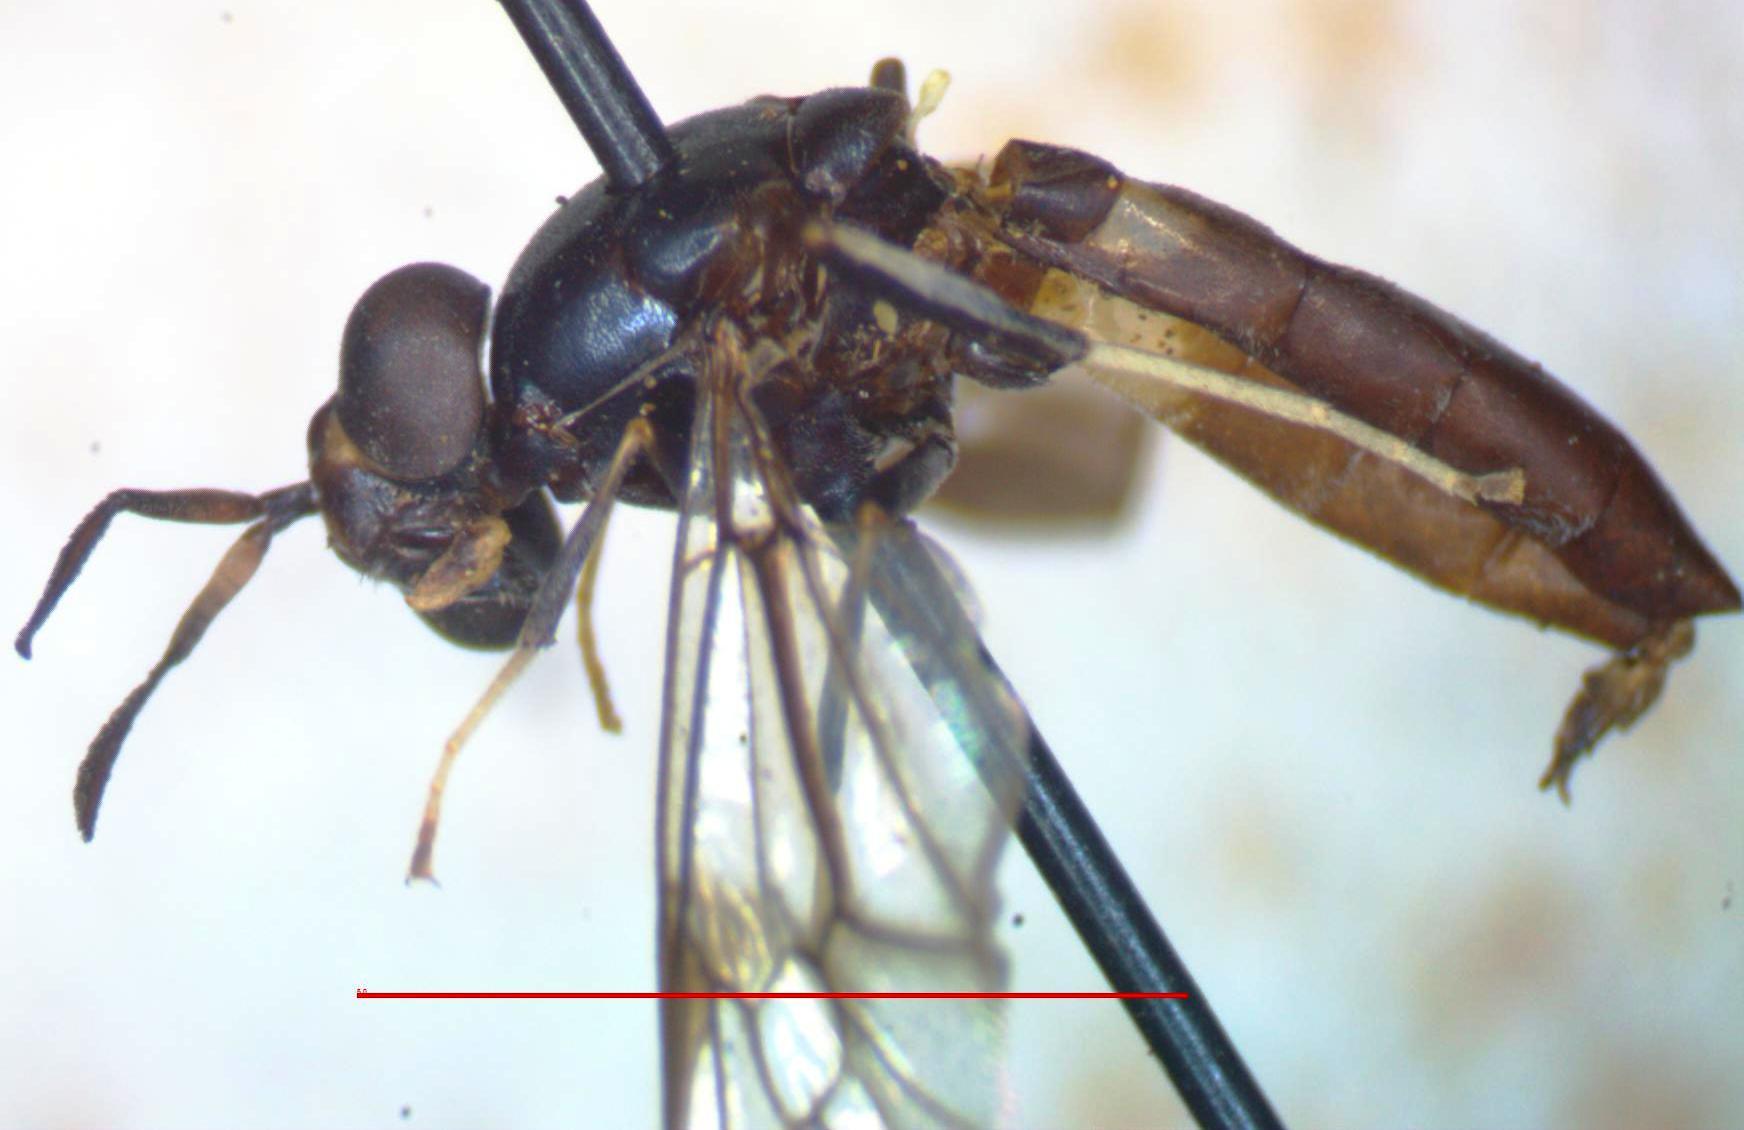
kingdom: Animalia
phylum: Arthropoda
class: Insecta
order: Diptera
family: Stratiomyidae
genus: Hermetia
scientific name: Hermetia albitarsis
